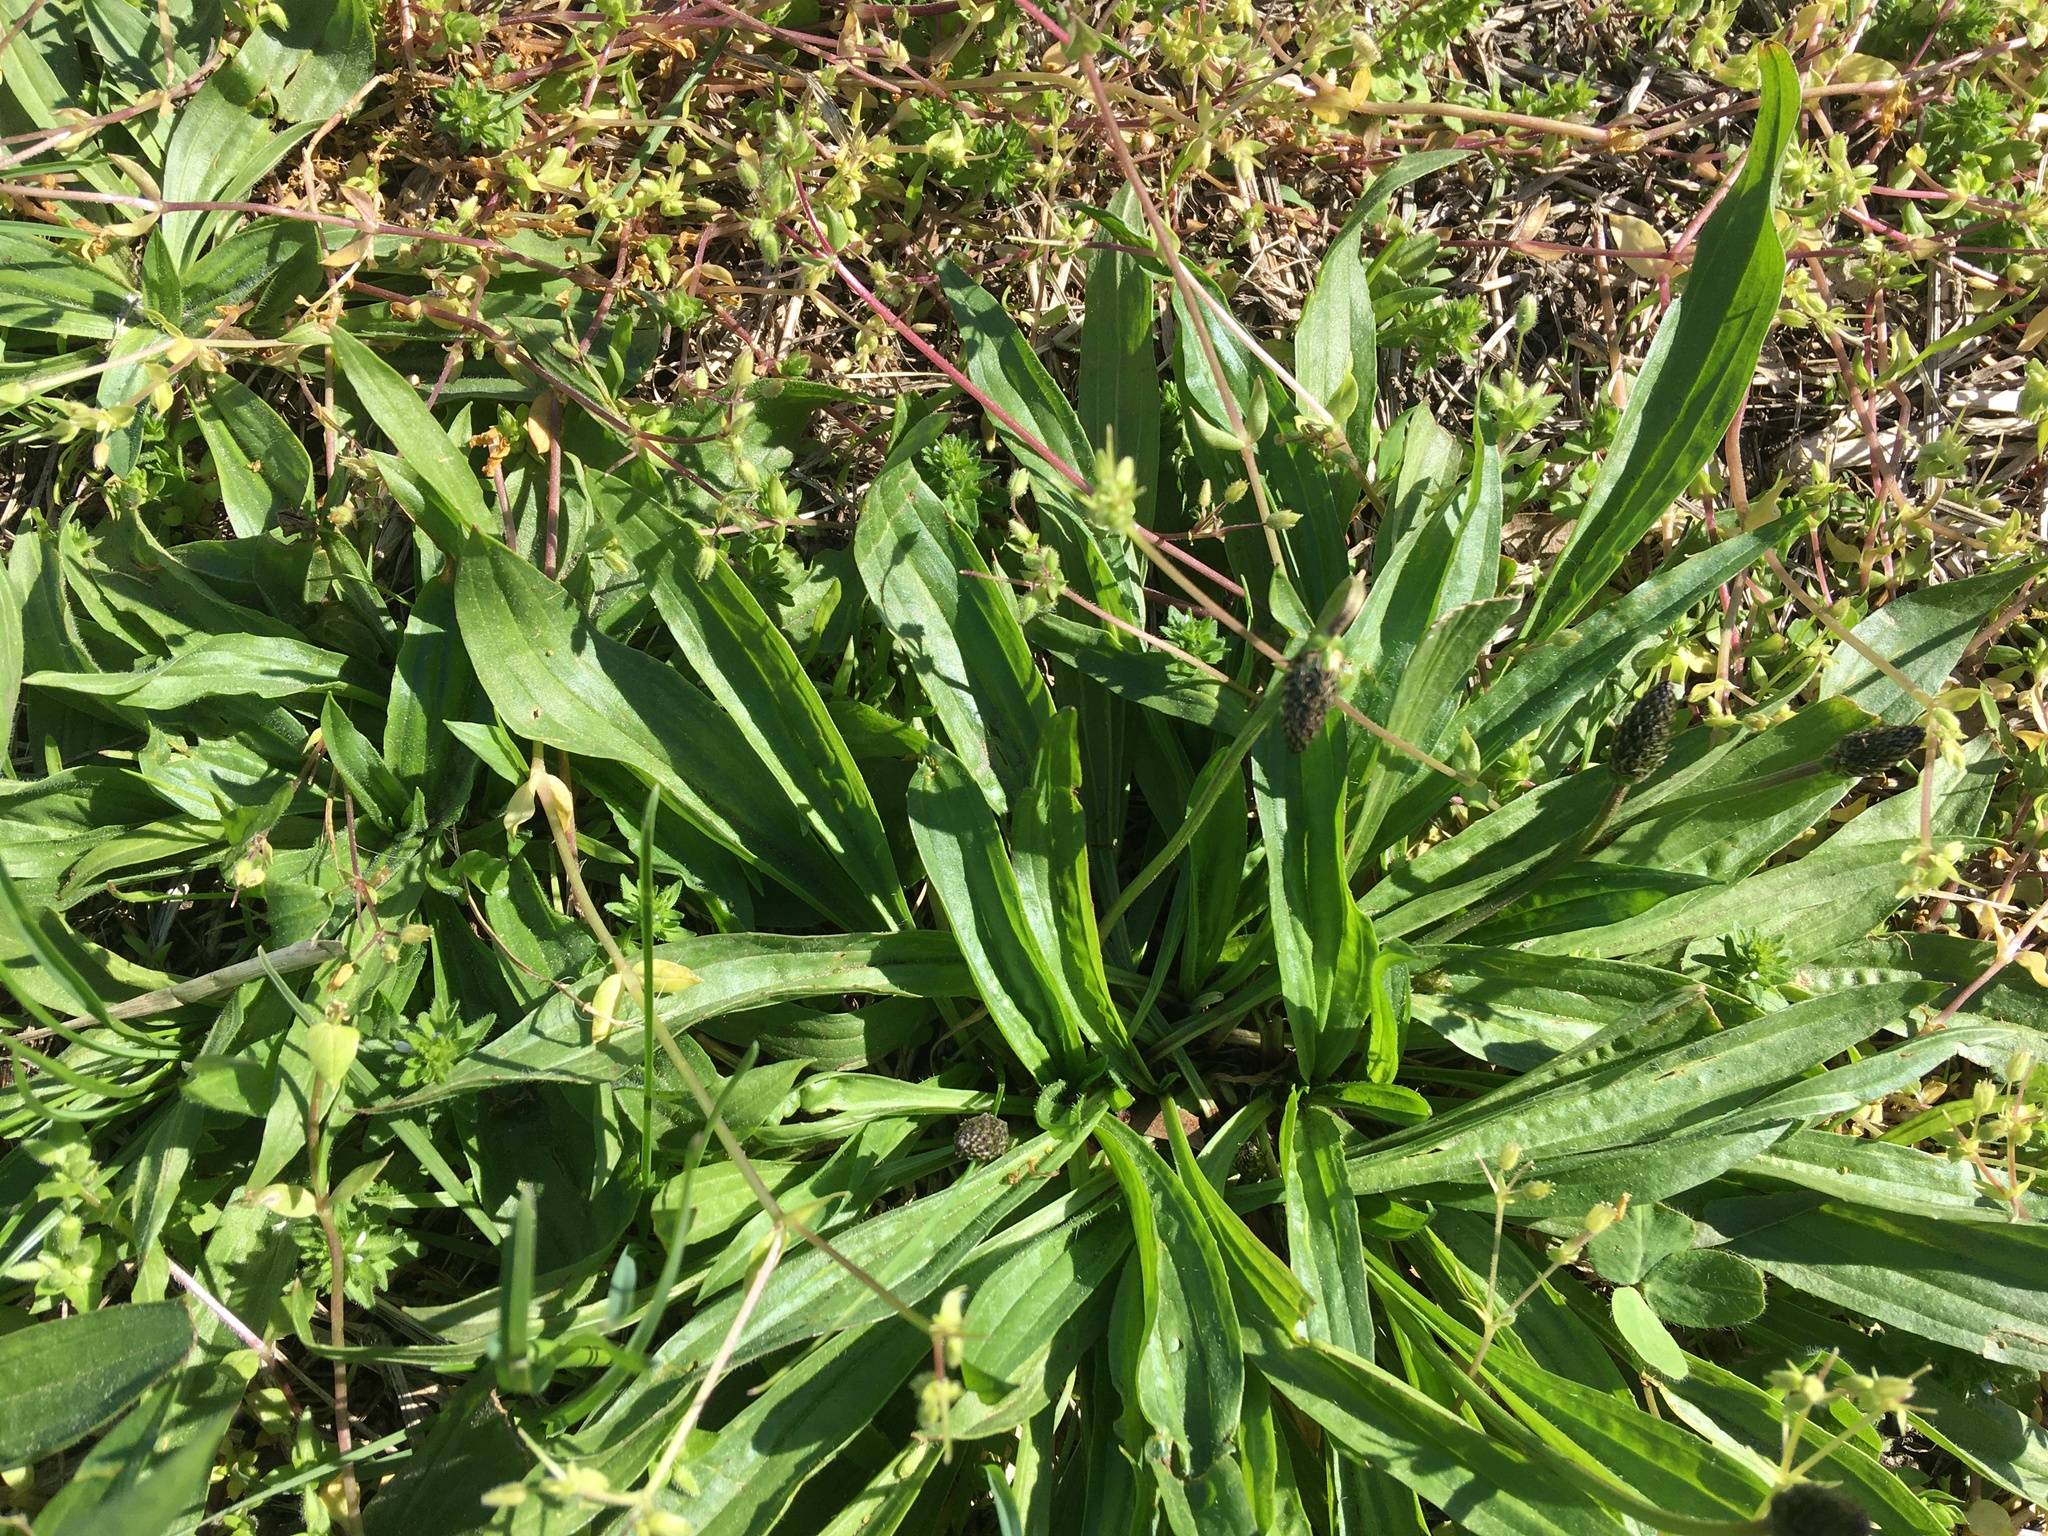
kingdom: Plantae
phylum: Tracheophyta
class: Magnoliopsida
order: Lamiales
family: Plantaginaceae
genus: Plantago
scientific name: Plantago lanceolata
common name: Ribwort plantain
